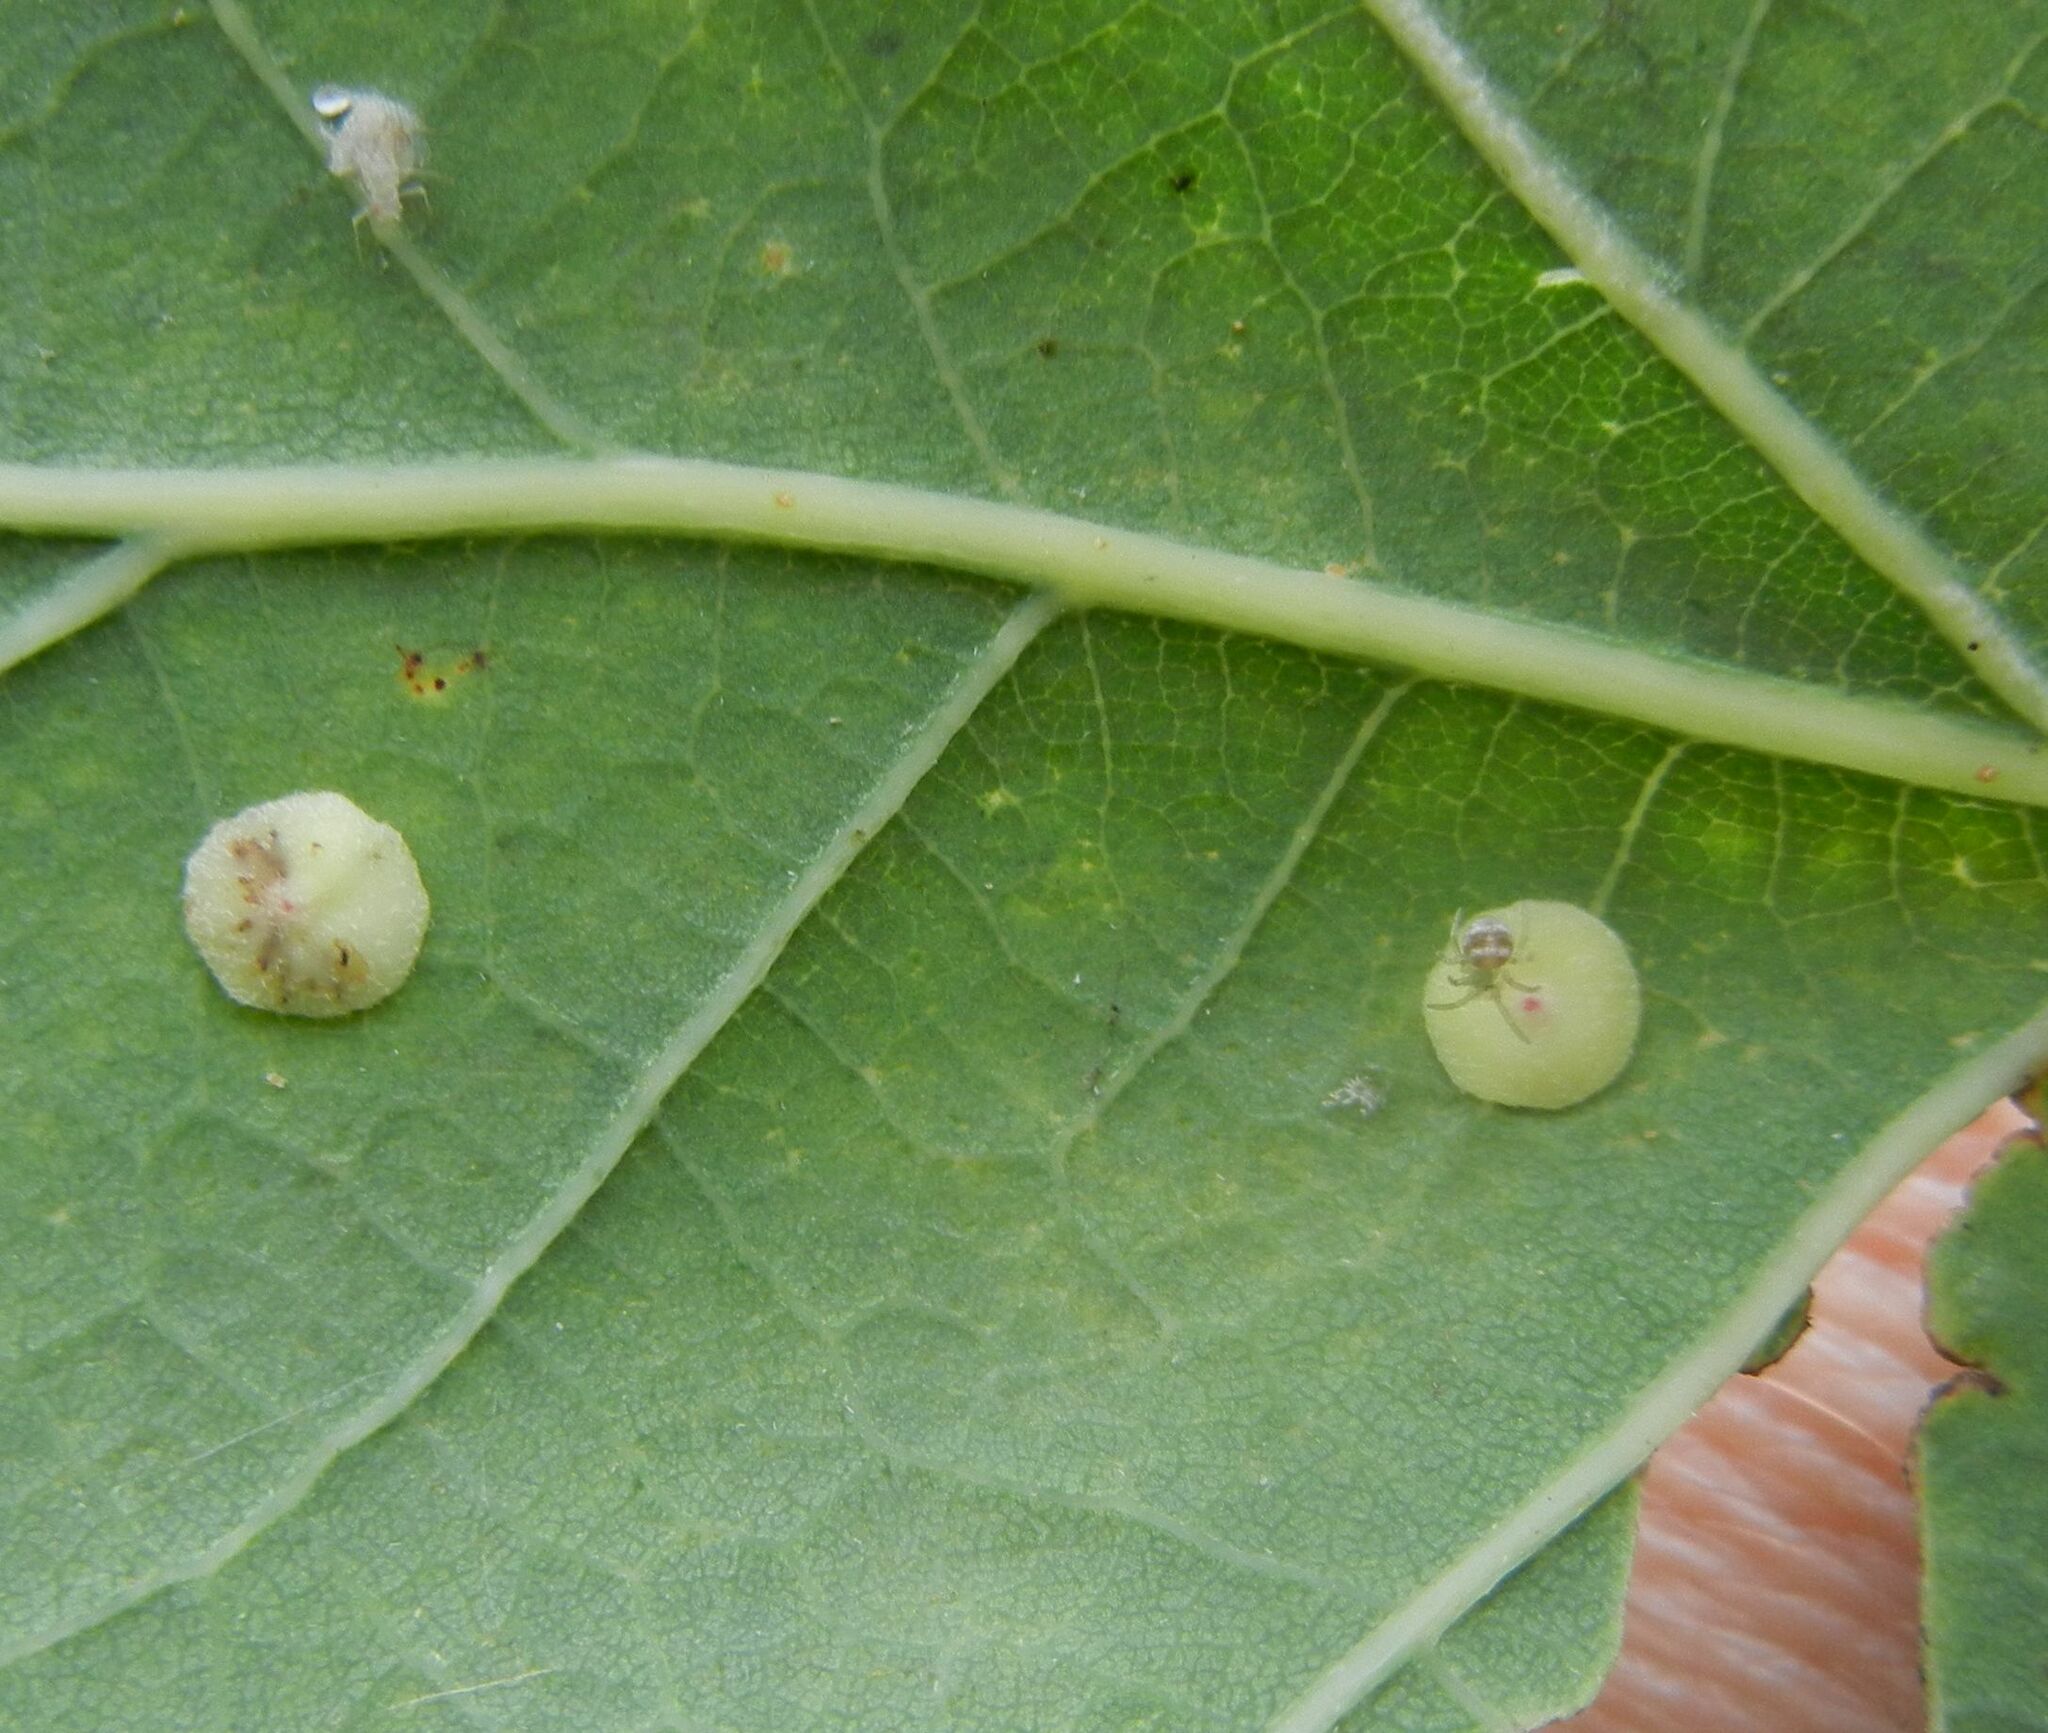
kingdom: Animalia
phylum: Arthropoda
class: Insecta
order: Hymenoptera
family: Cynipidae
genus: Neuroterus
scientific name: Neuroterus albipes
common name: Smooth spangle gall
